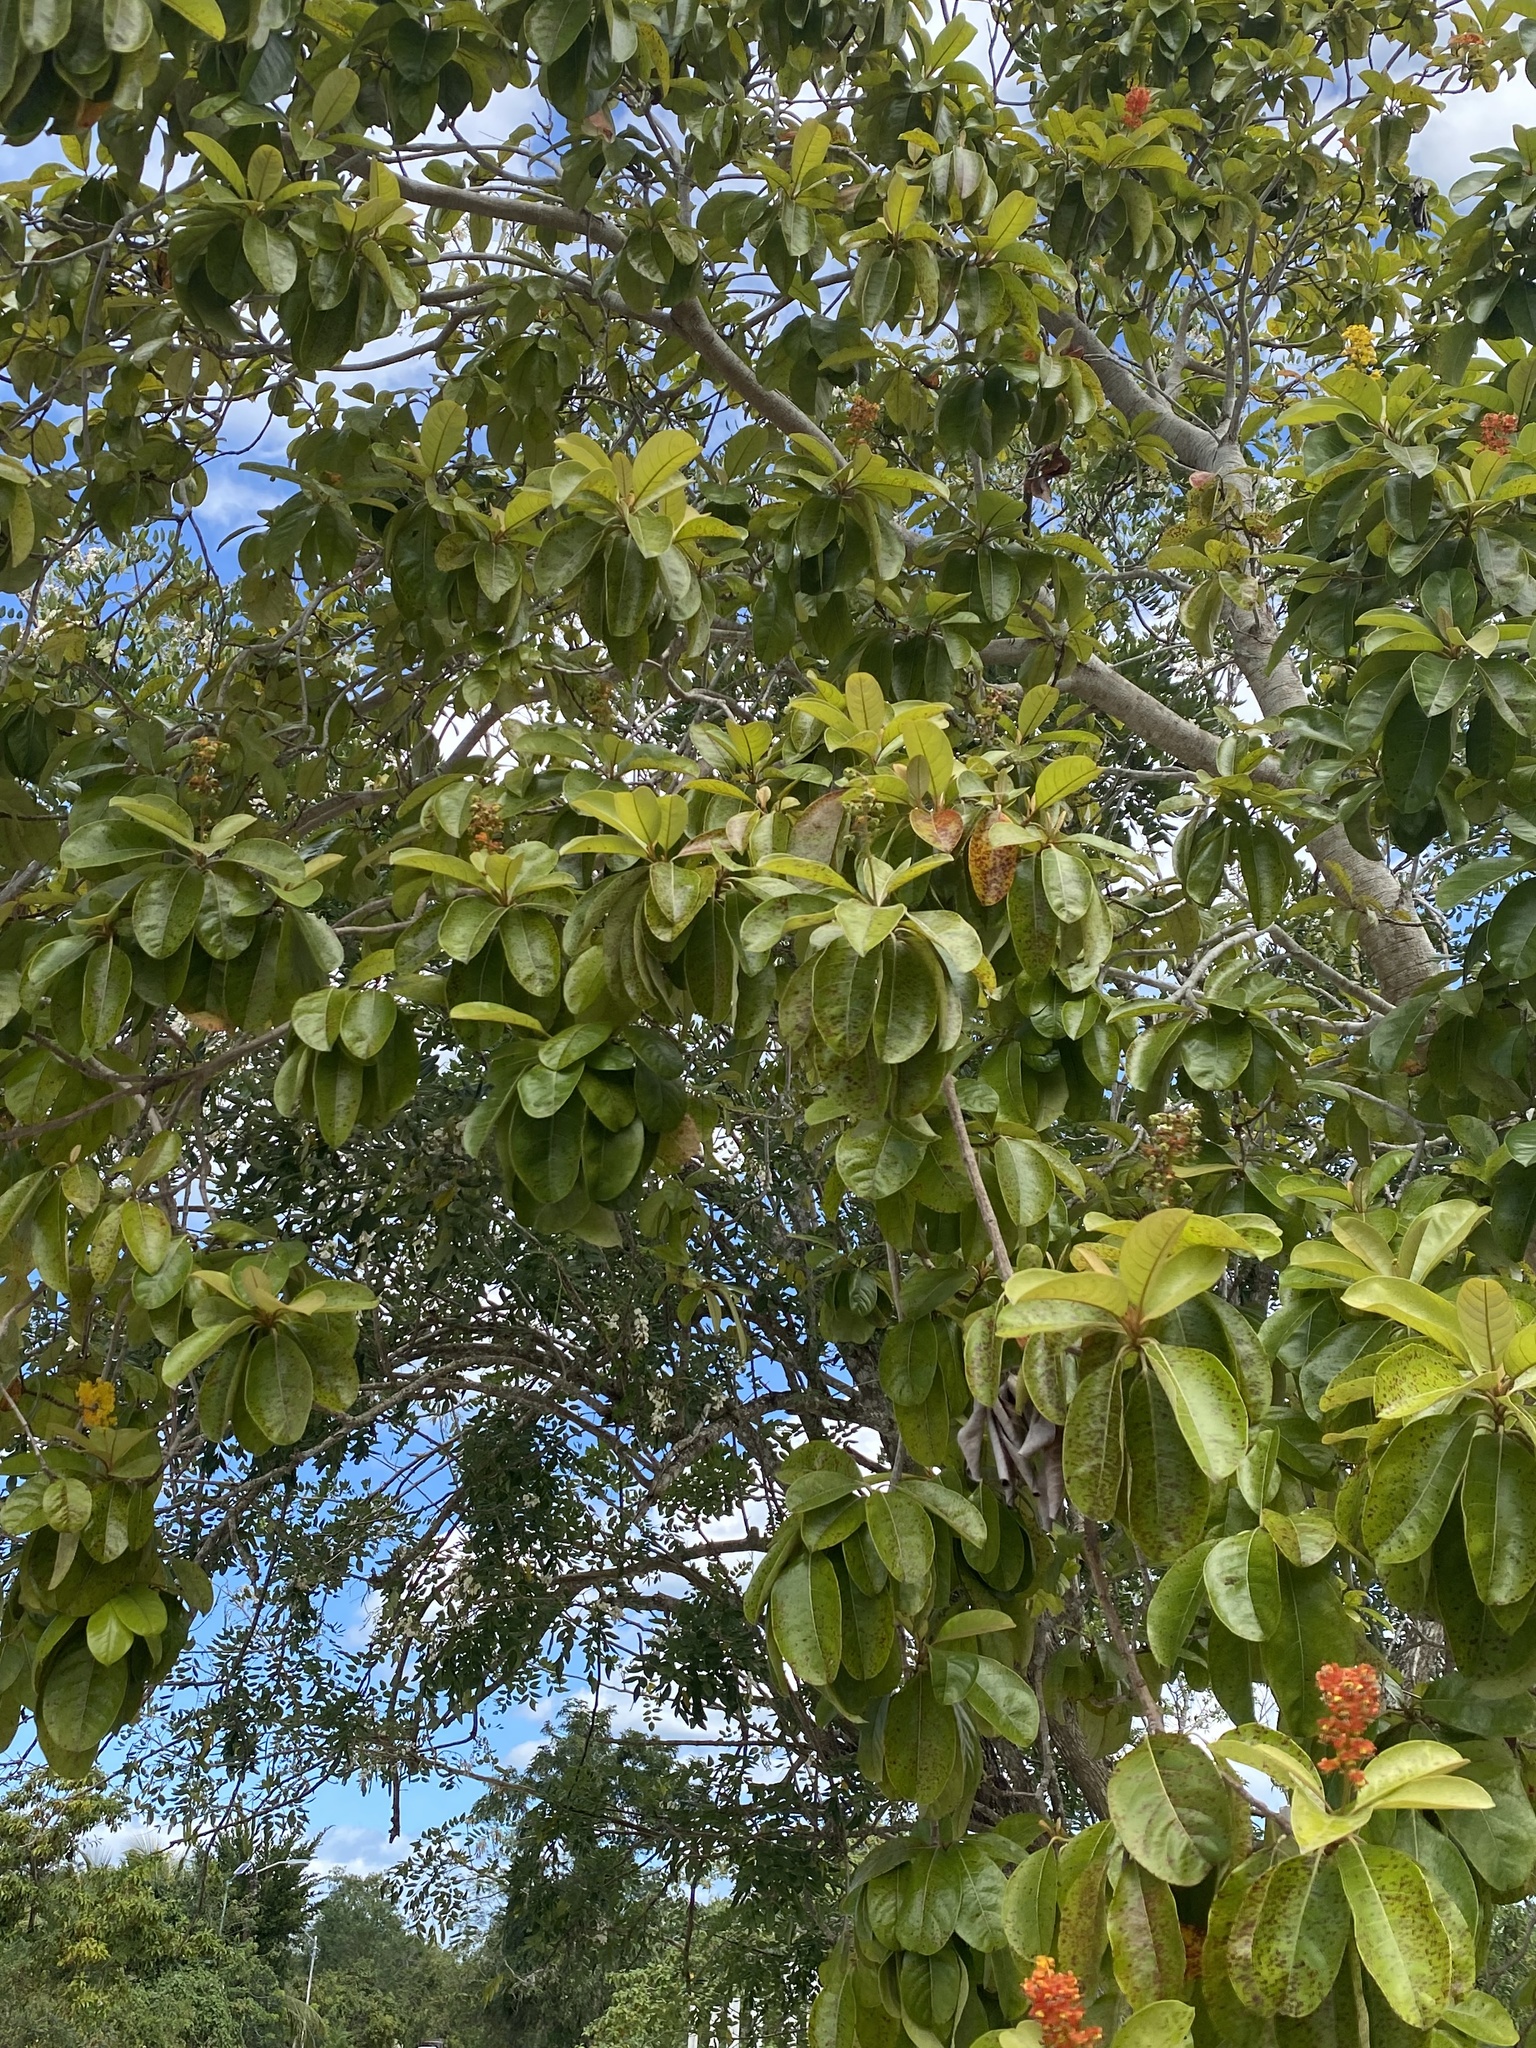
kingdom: Plantae
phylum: Tracheophyta
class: Magnoliopsida
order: Malpighiales
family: Malpighiaceae
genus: Byrsonima
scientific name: Byrsonima crassifolia
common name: Golden spoon
